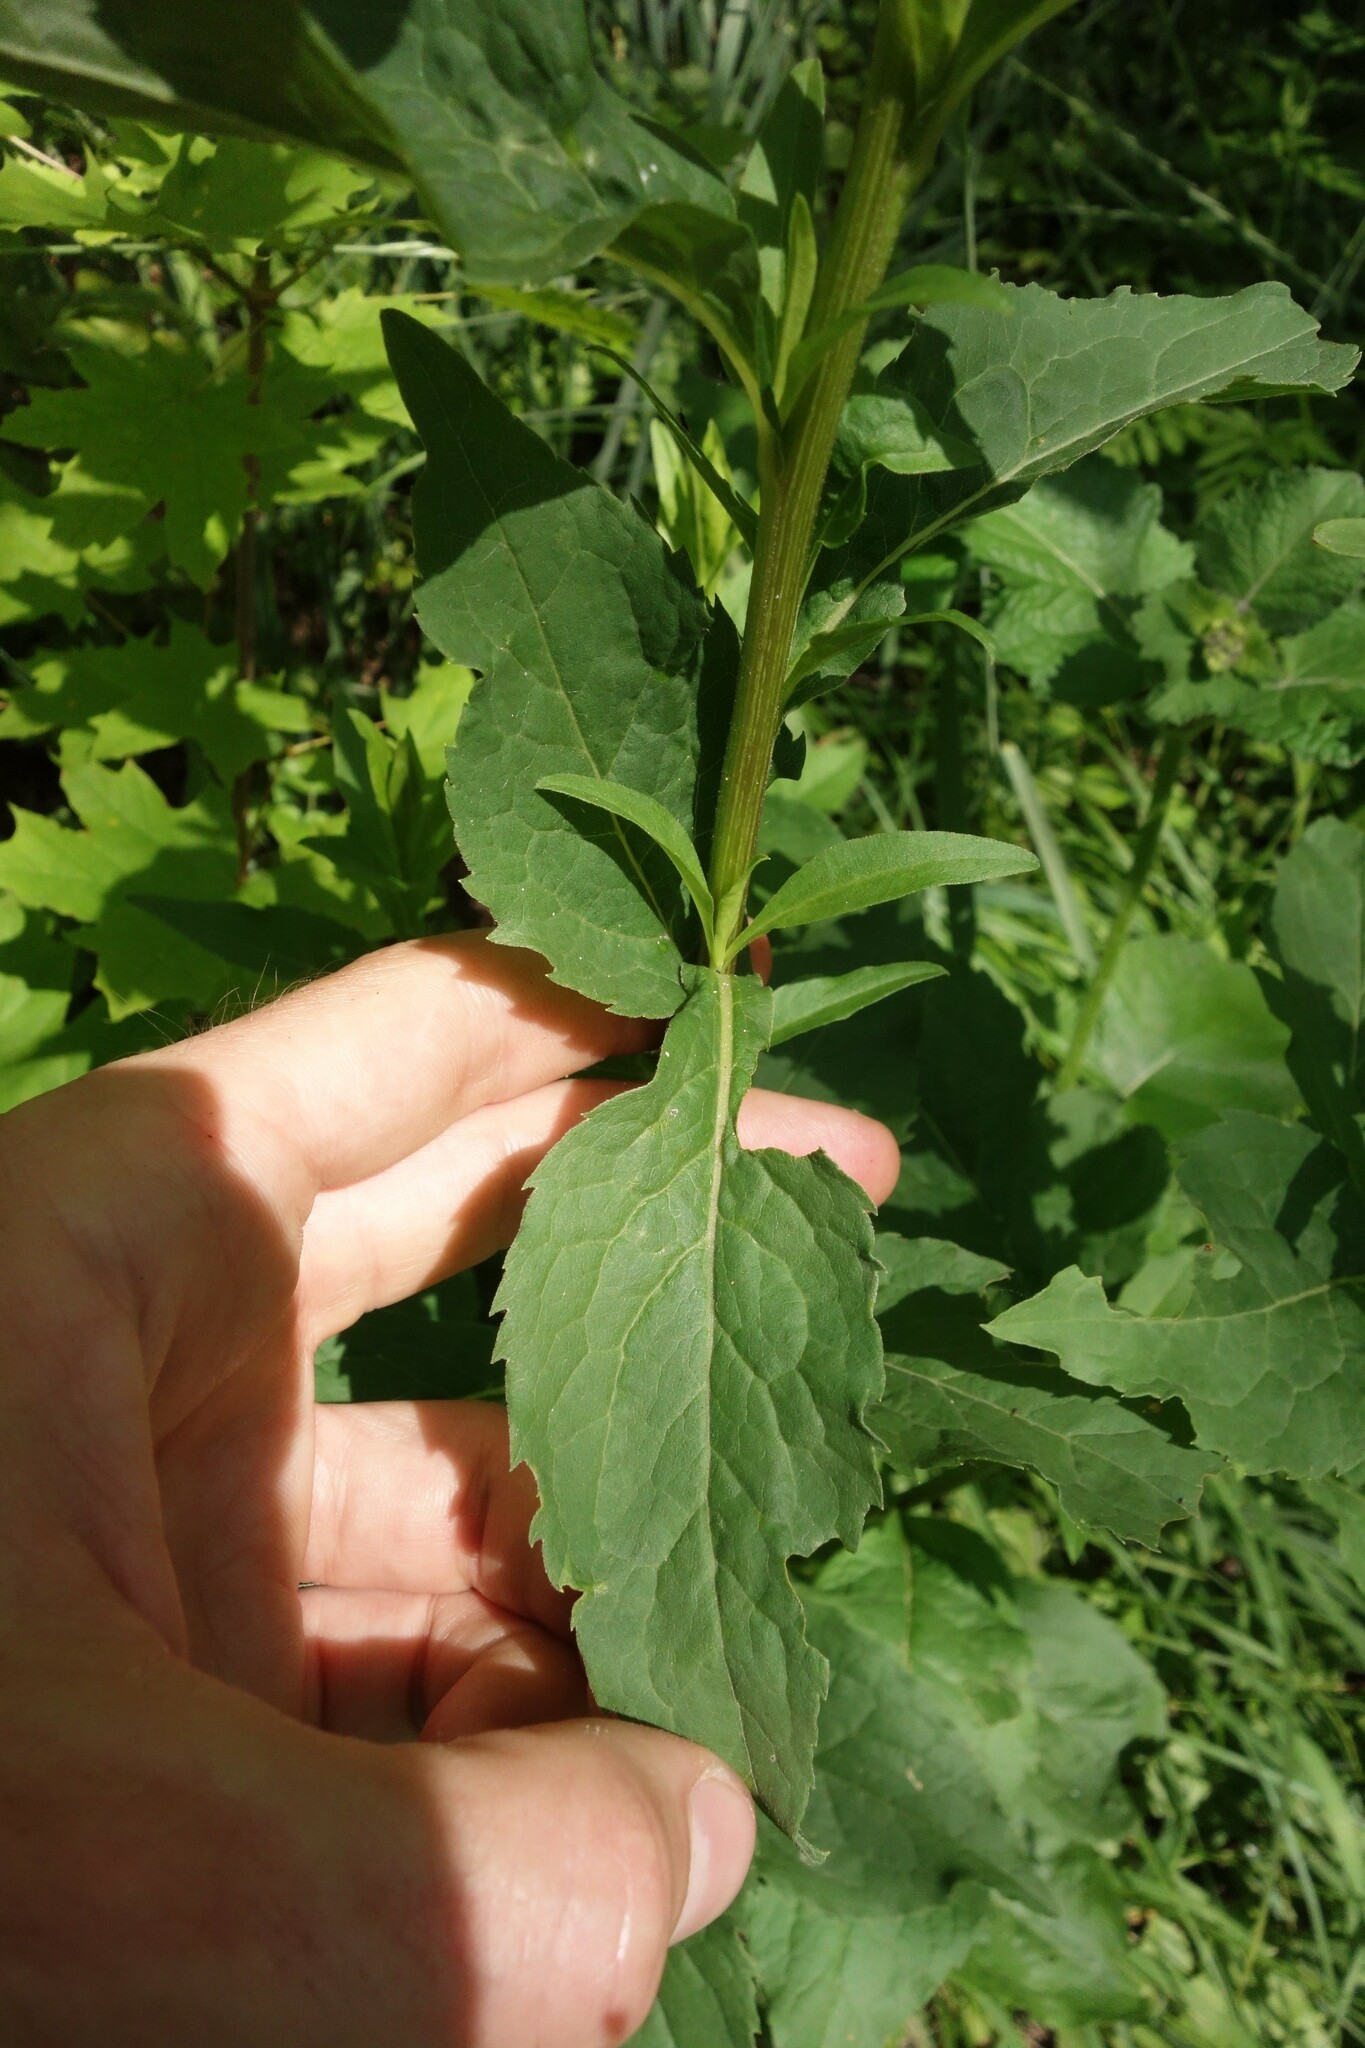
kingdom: Plantae
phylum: Tracheophyta
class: Magnoliopsida
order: Asterales
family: Asteraceae
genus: Solidago
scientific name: Solidago virgaurea
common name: Goldenrod
